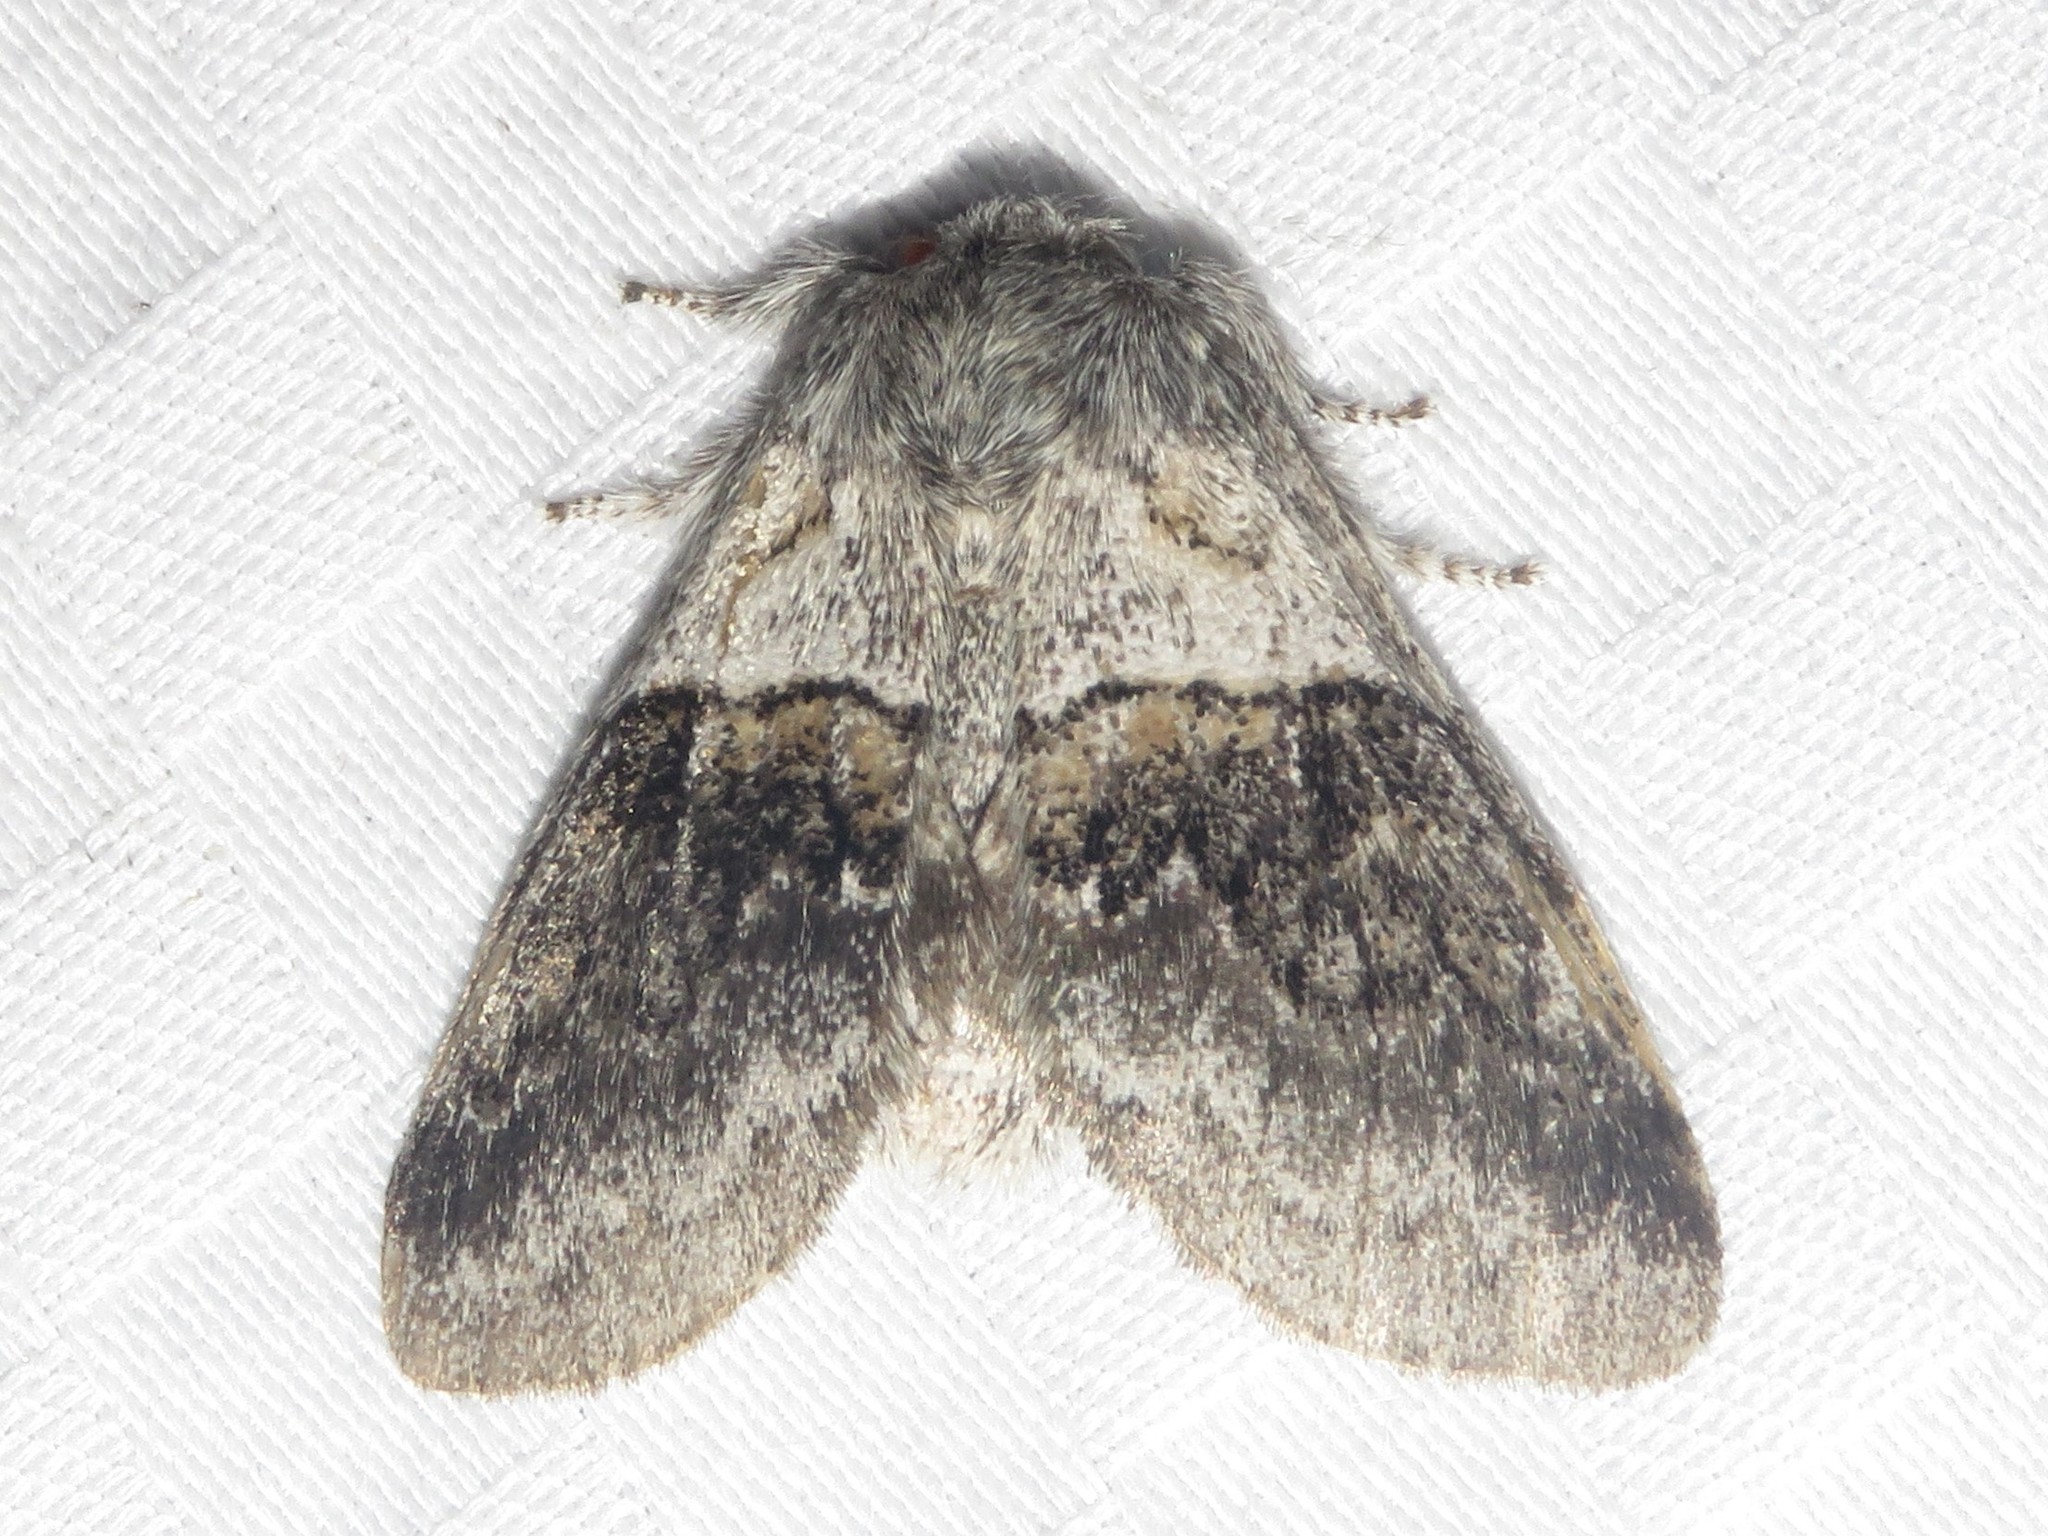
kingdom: Animalia
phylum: Arthropoda
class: Insecta
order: Lepidoptera
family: Notodontidae
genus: Gluphisia
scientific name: Gluphisia septentrionis
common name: Common gluphisia
